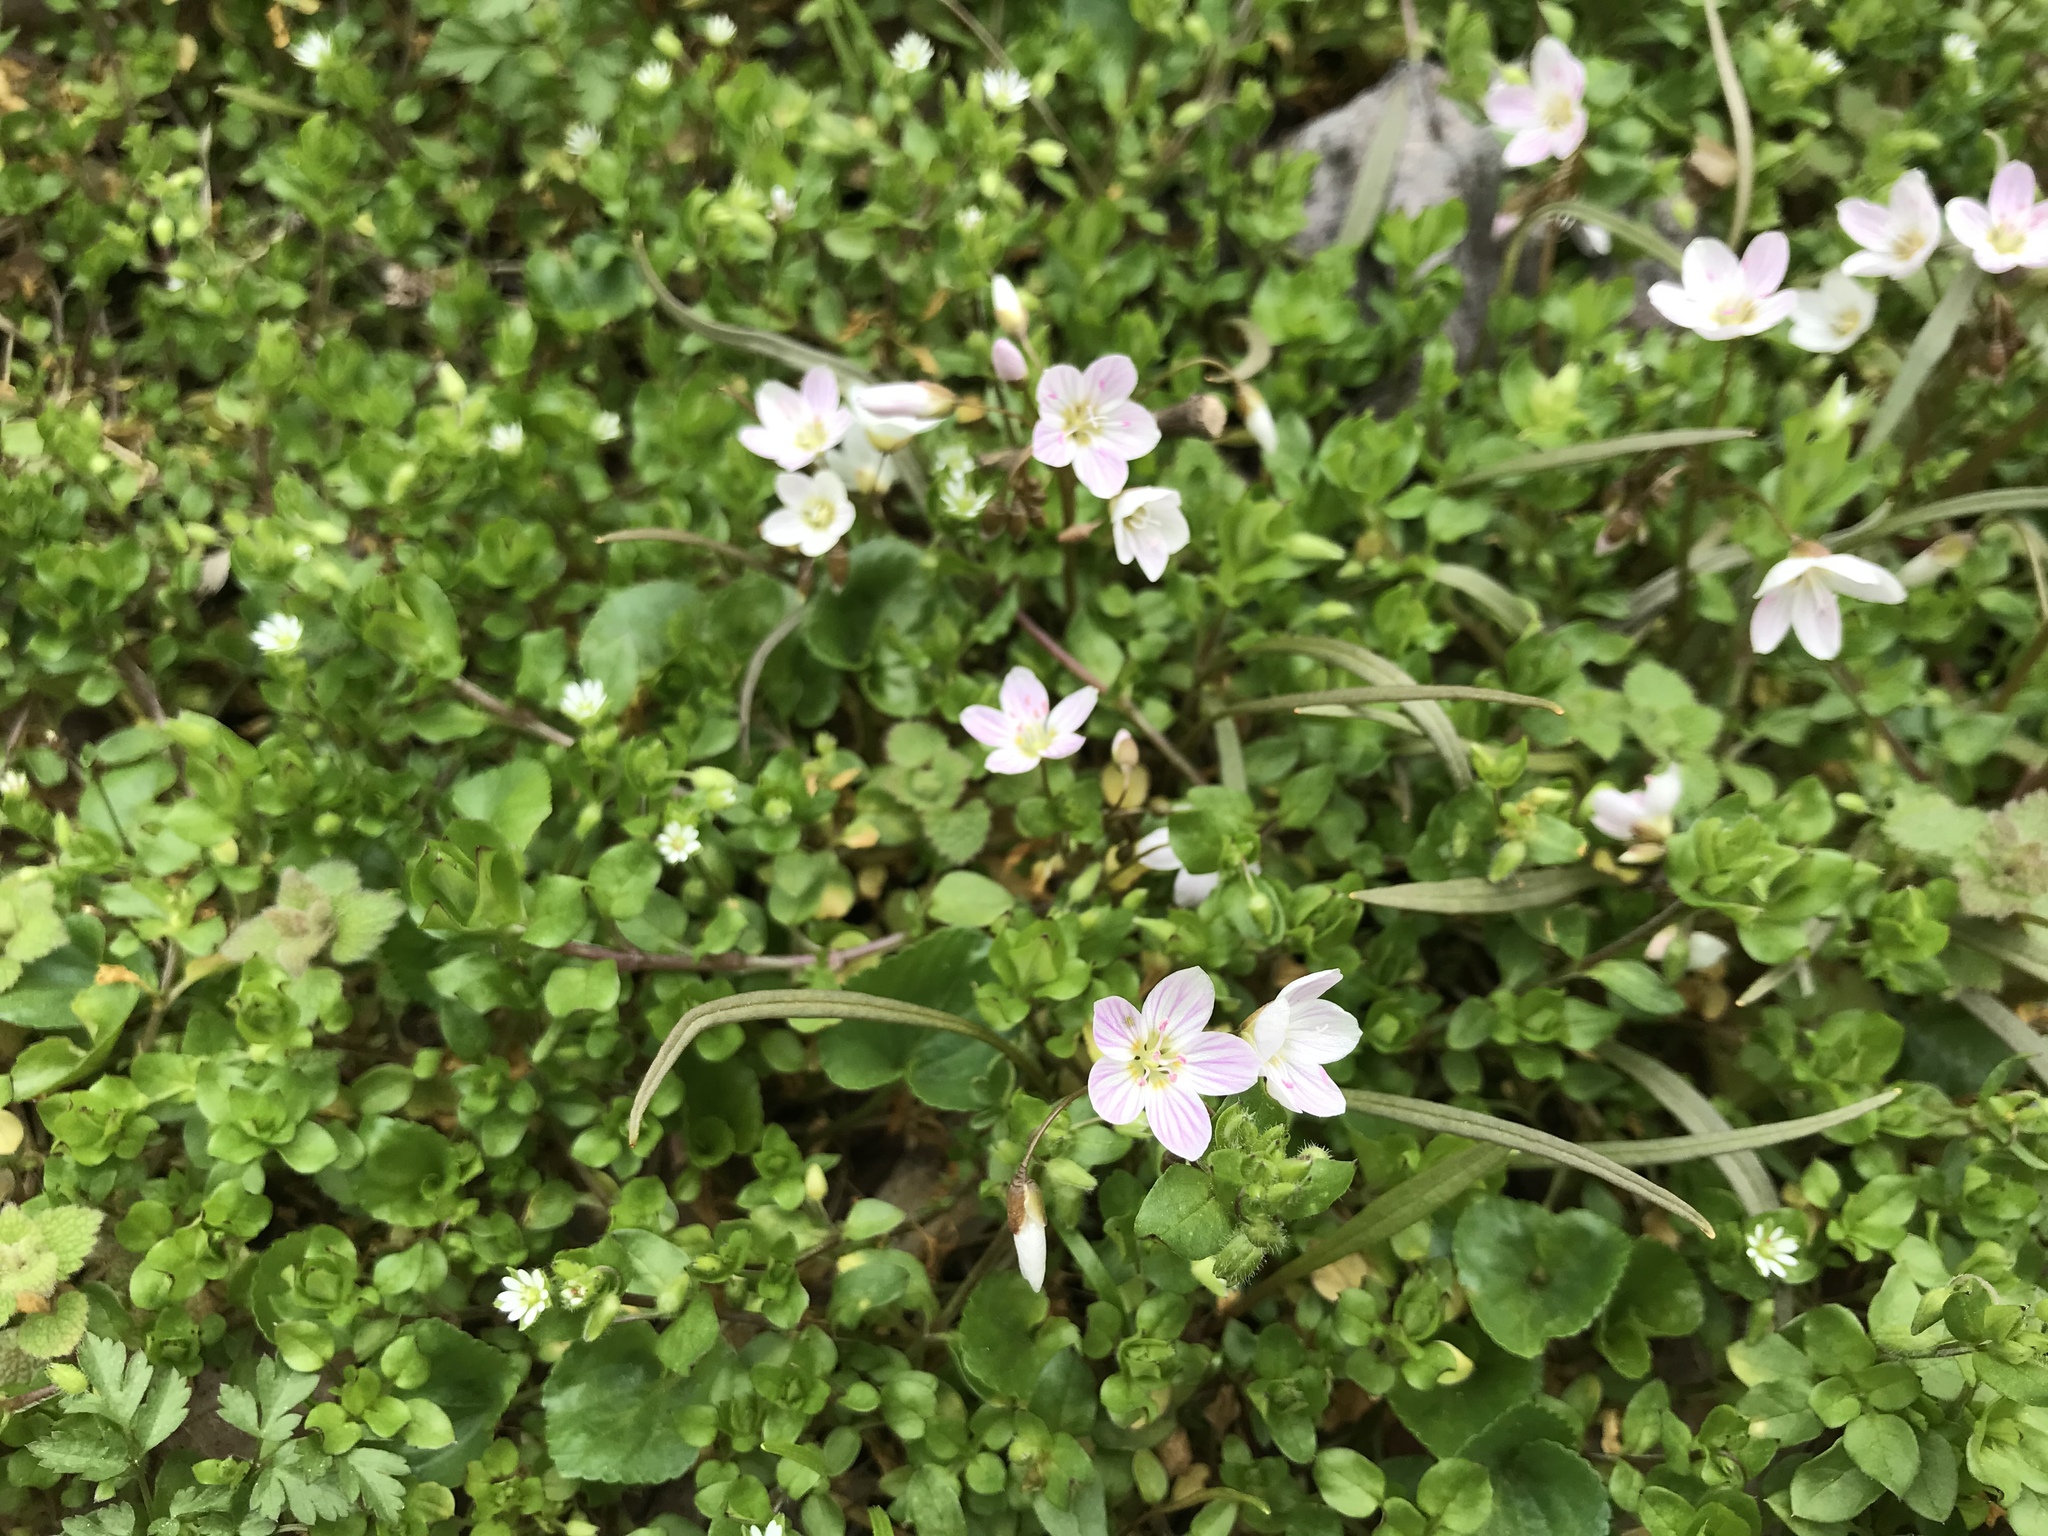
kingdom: Plantae
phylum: Tracheophyta
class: Magnoliopsida
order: Caryophyllales
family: Montiaceae
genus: Claytonia
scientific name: Claytonia virginica
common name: Virginia springbeauty
